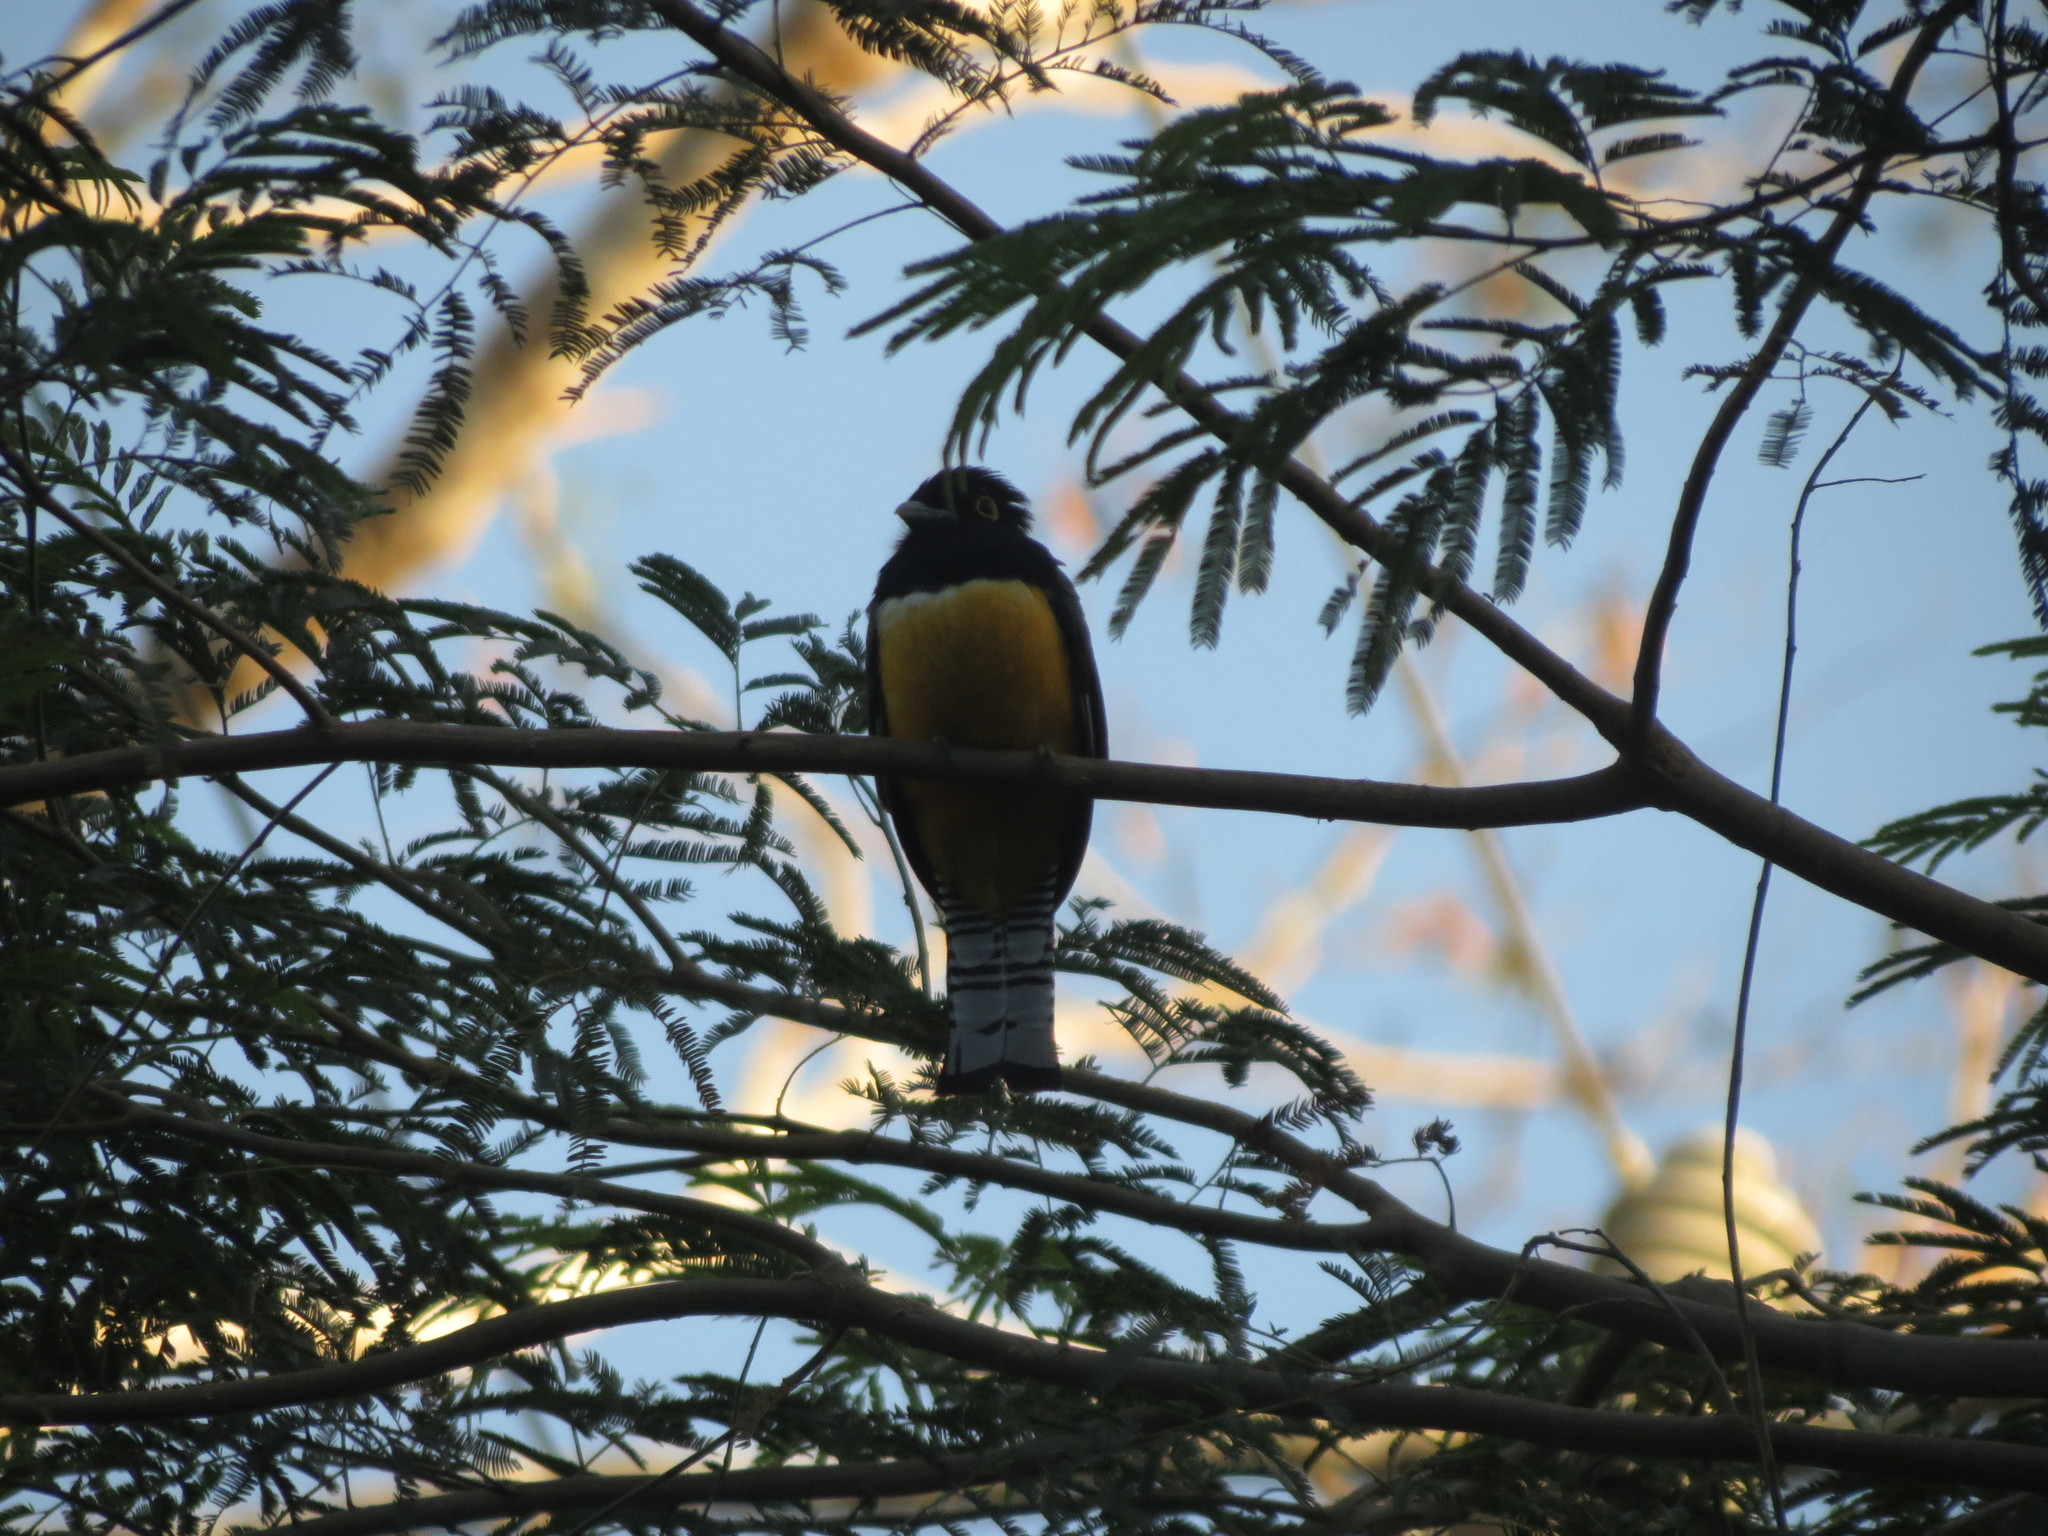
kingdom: Animalia
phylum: Chordata
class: Aves
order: Trogoniformes
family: Trogonidae
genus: Trogon
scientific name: Trogon caligatus
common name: Gartered trogon
